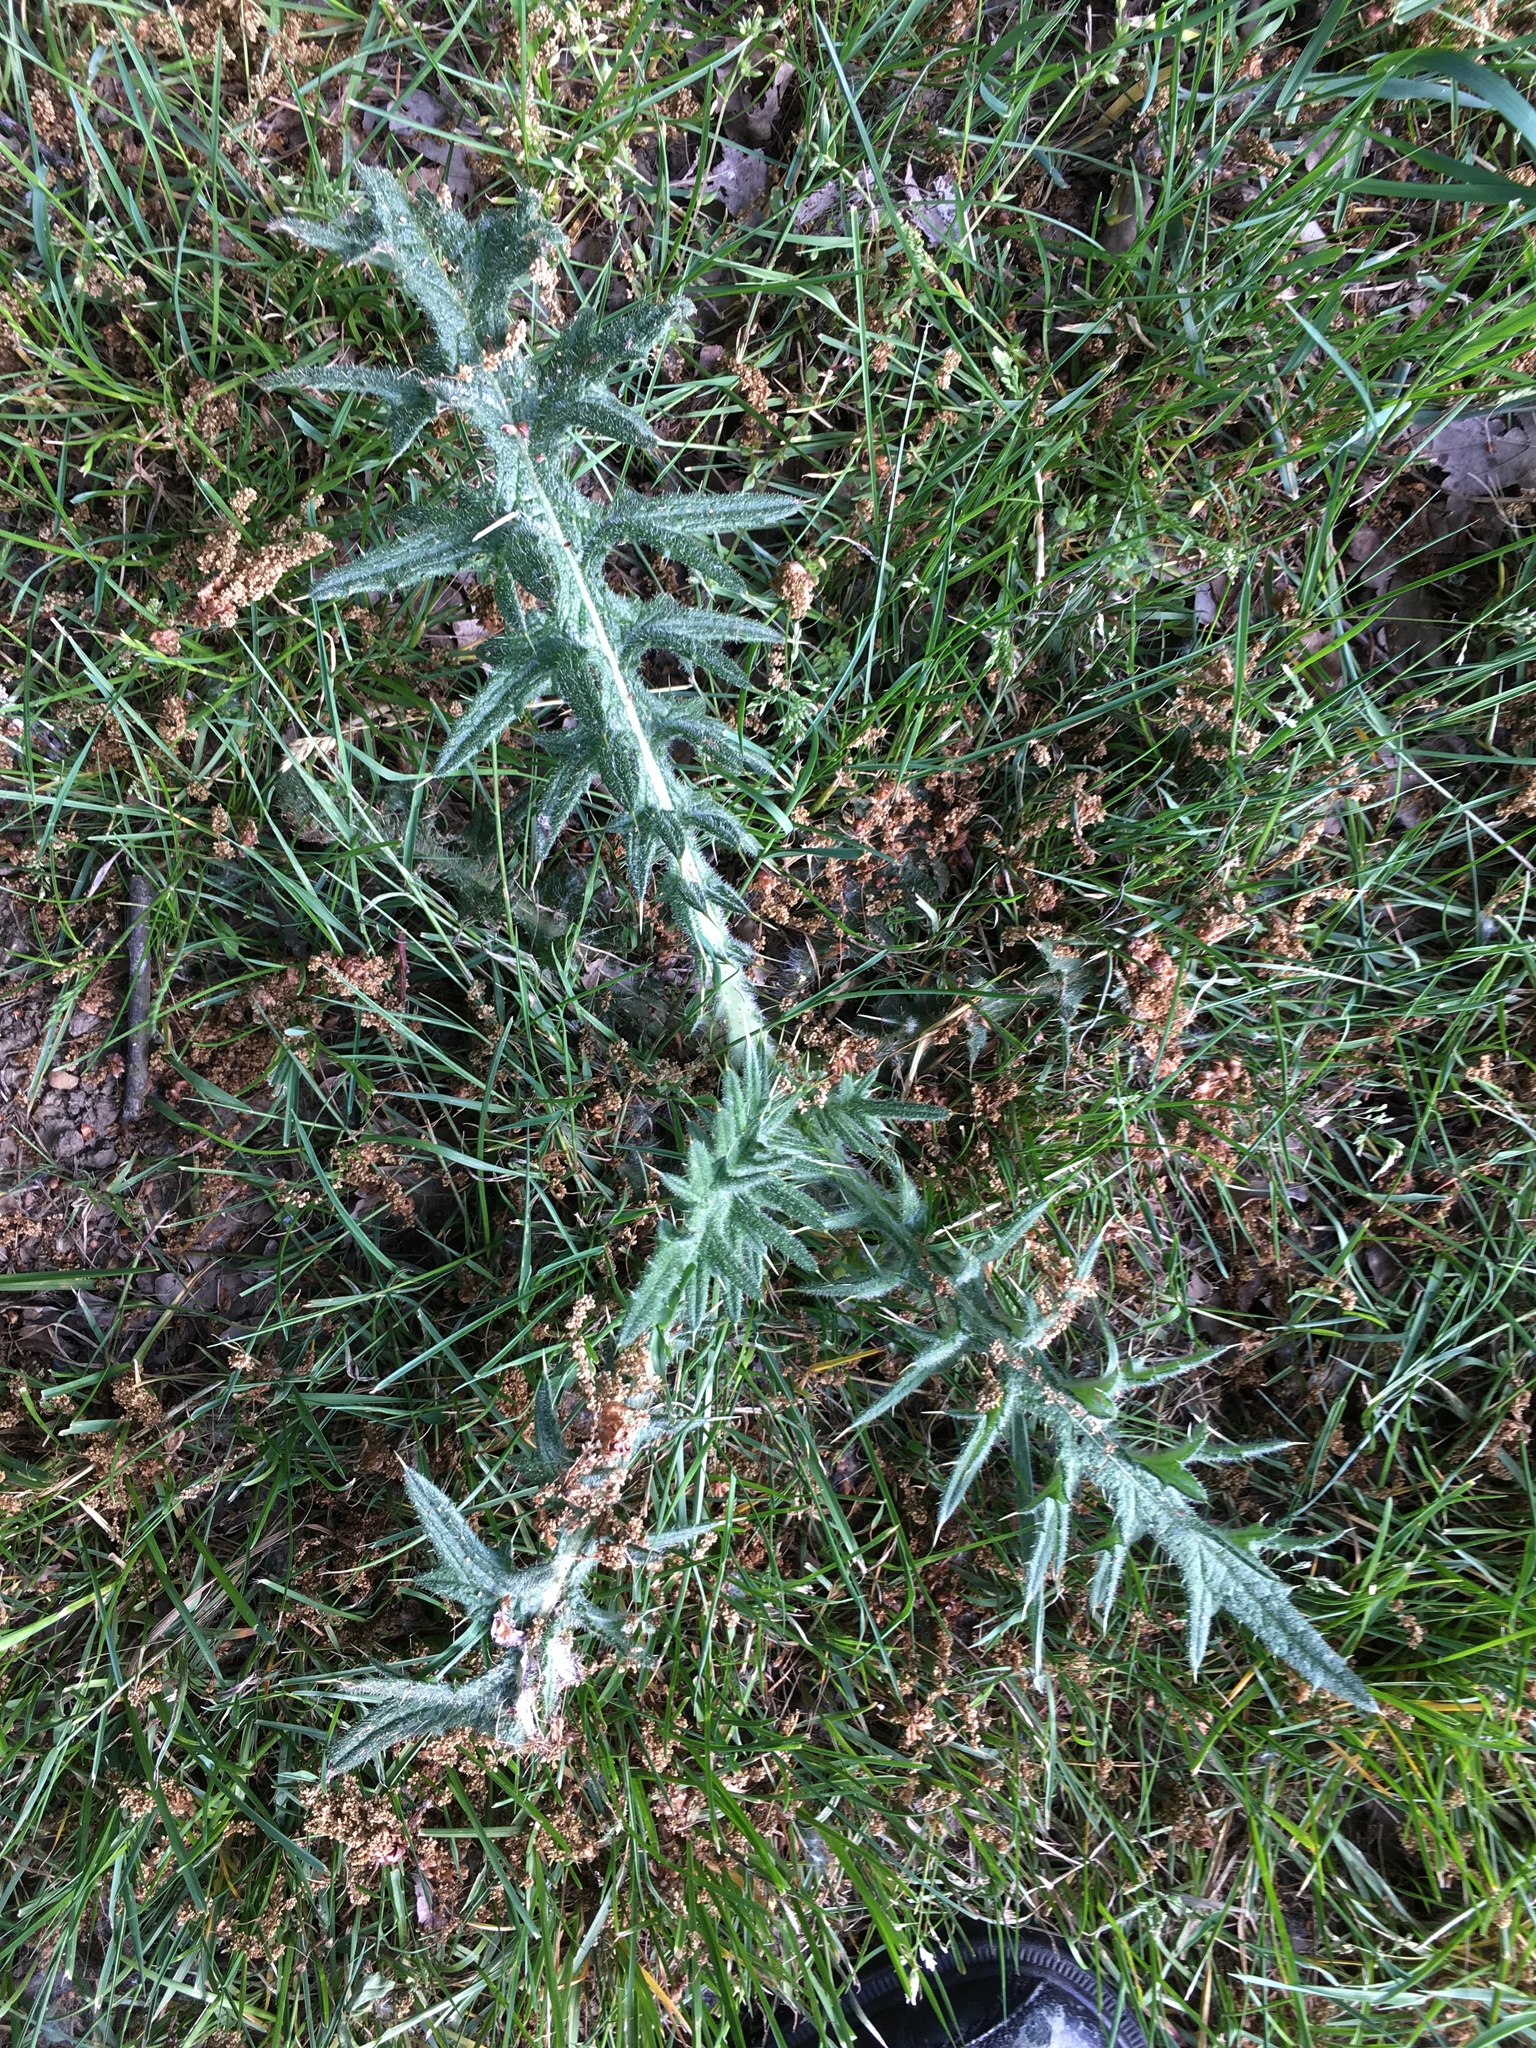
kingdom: Plantae
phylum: Tracheophyta
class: Magnoliopsida
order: Asterales
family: Asteraceae
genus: Cirsium
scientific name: Cirsium vulgare
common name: Bull thistle
